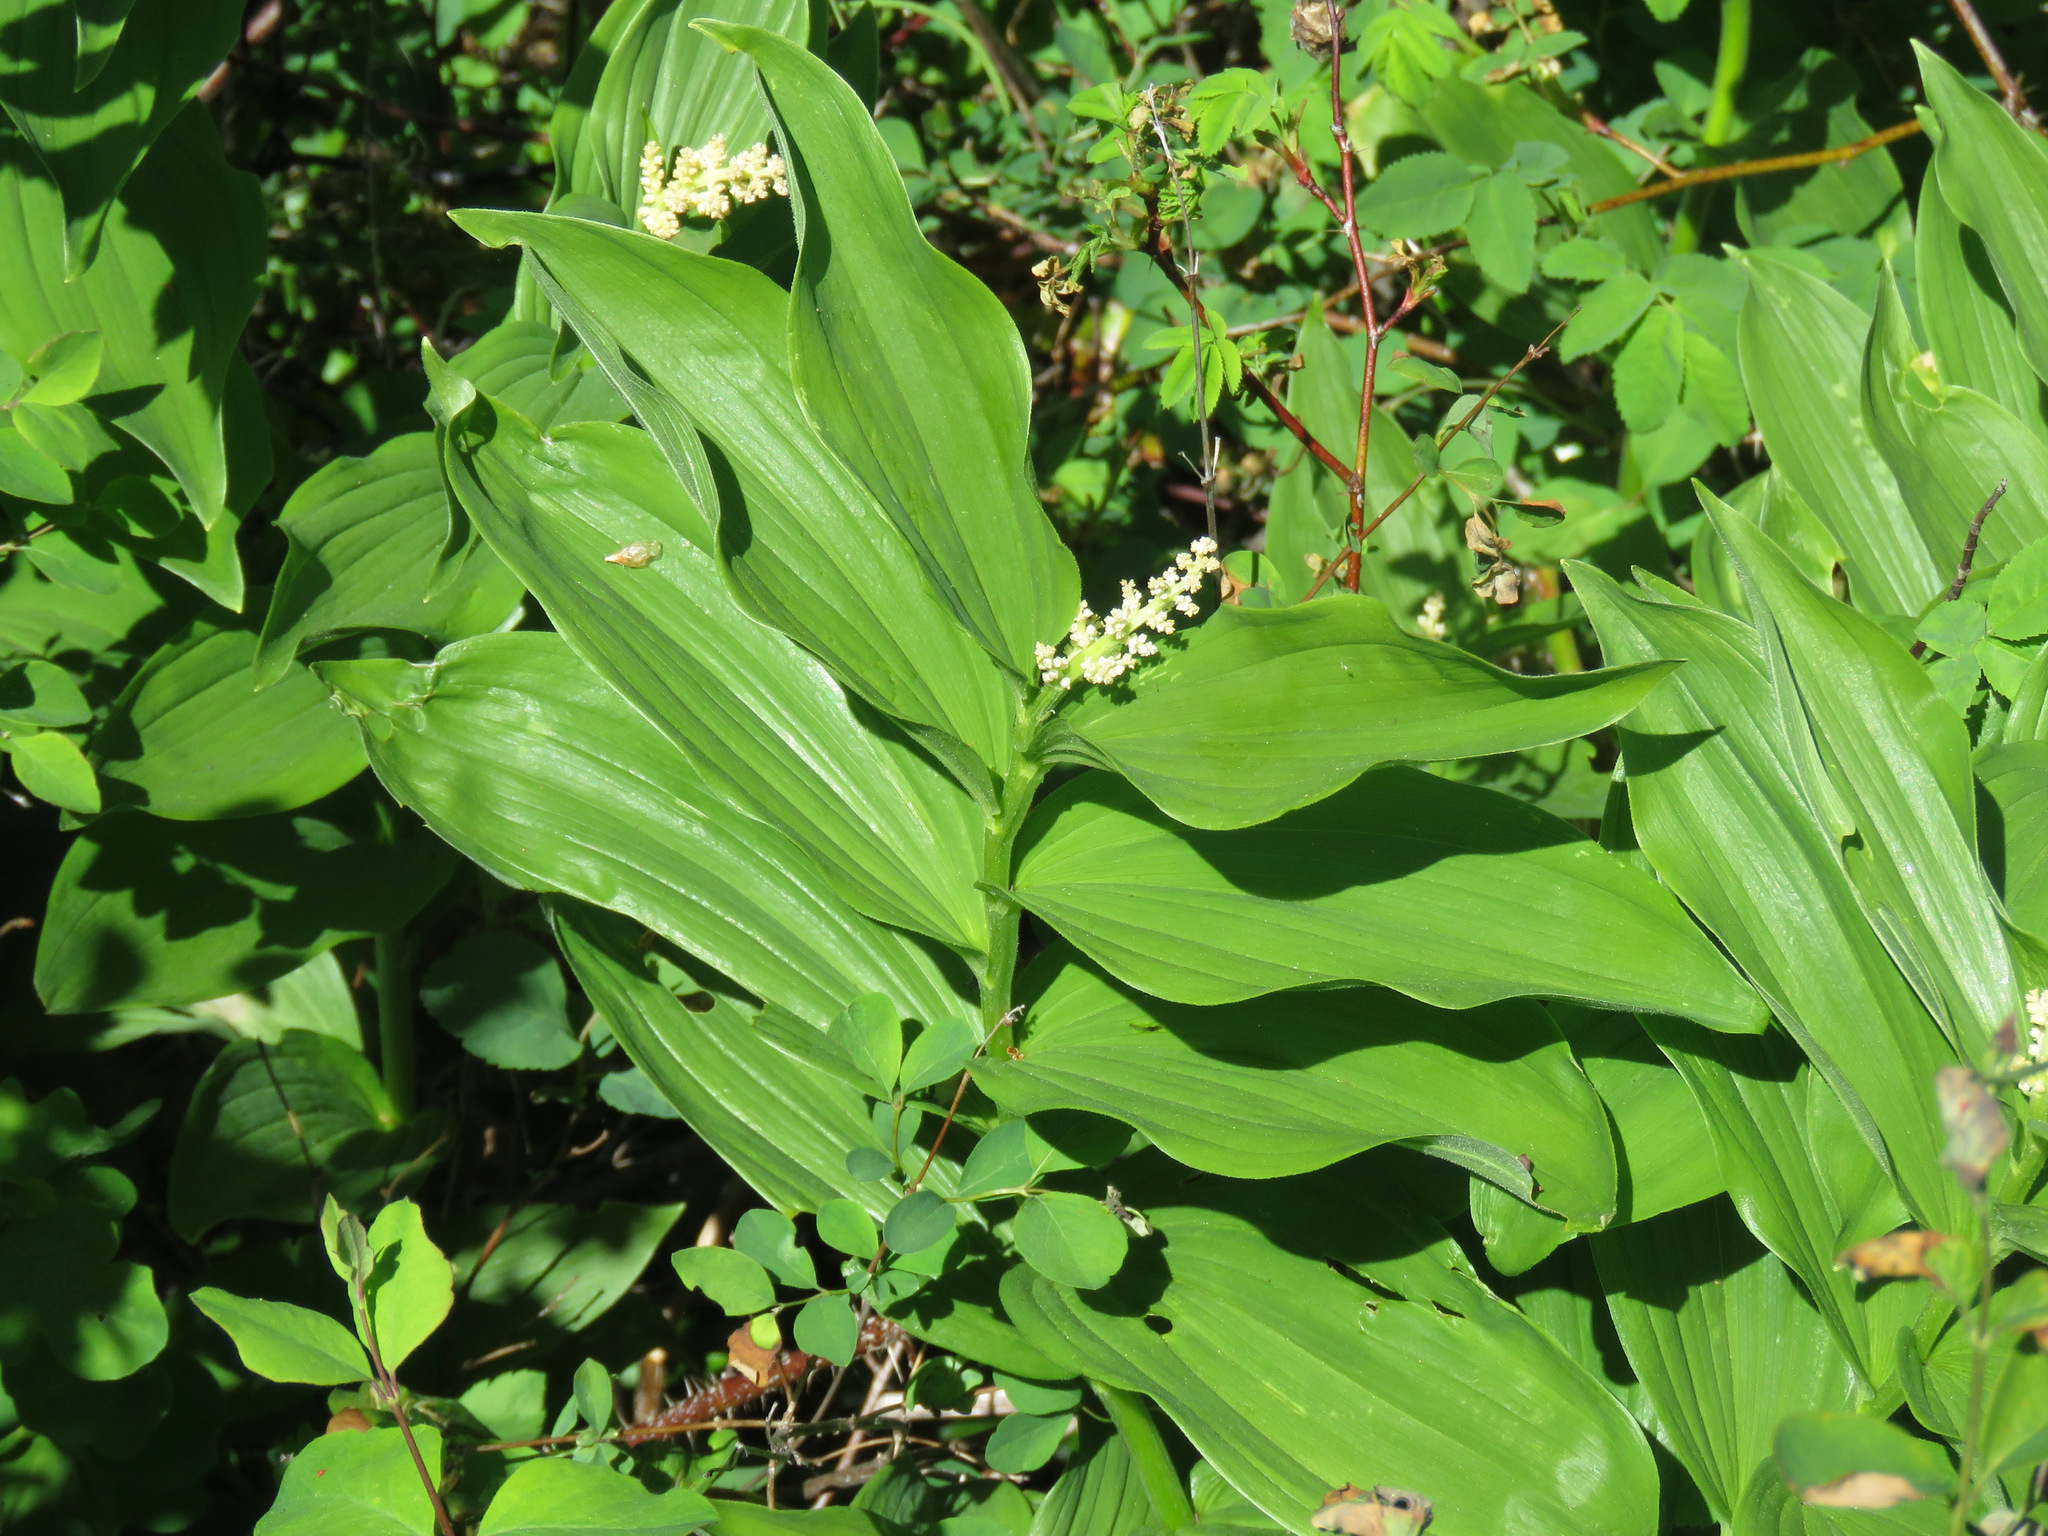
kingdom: Plantae
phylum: Tracheophyta
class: Liliopsida
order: Asparagales
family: Asparagaceae
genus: Maianthemum
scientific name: Maianthemum racemosum
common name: False spikenard
